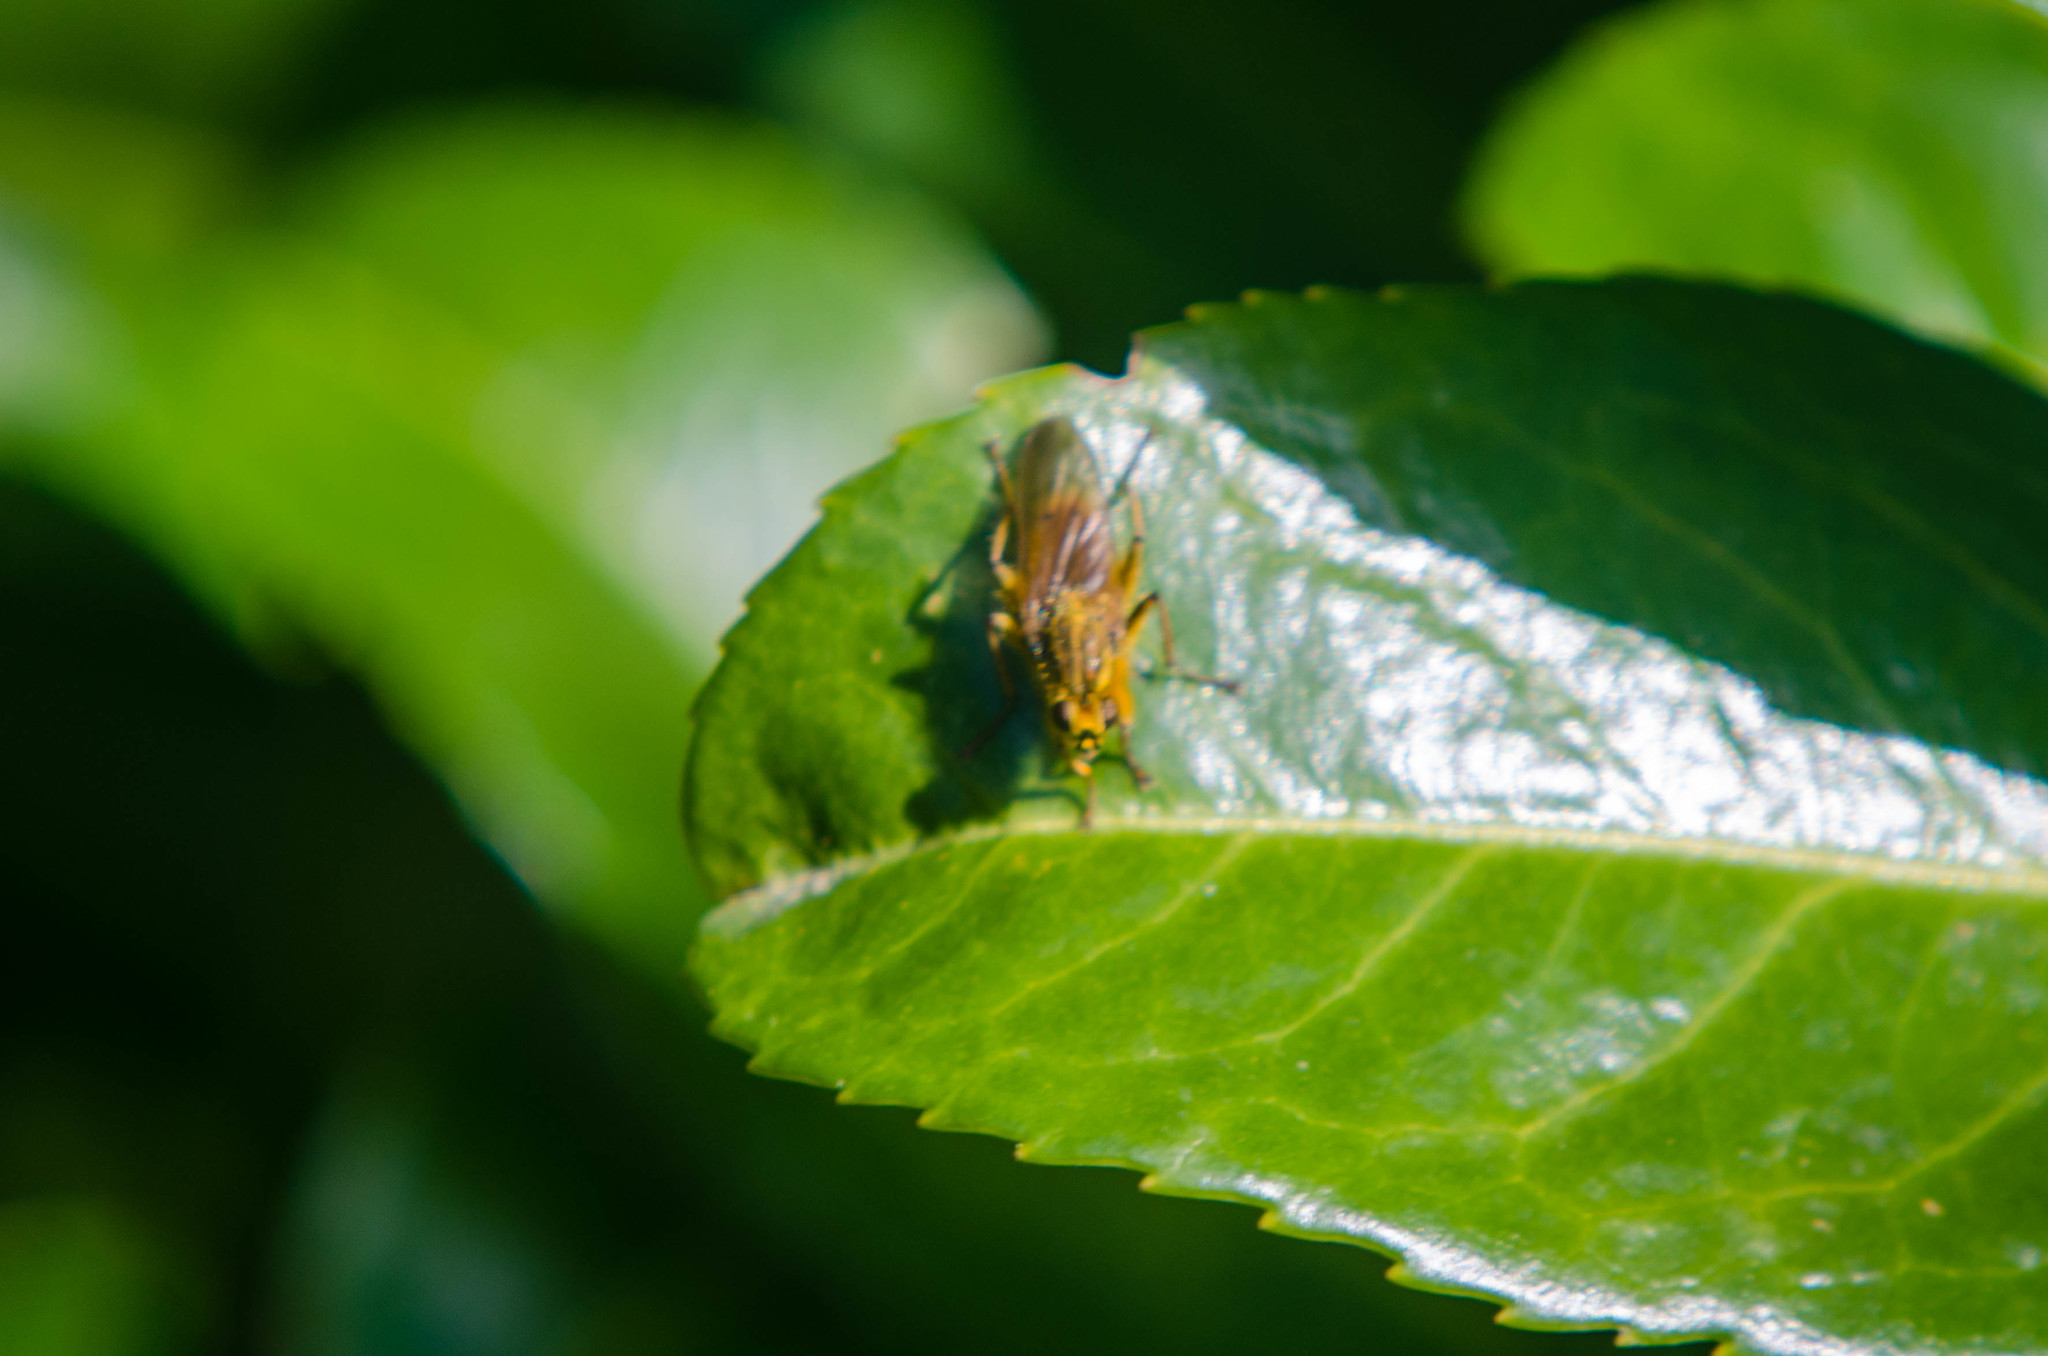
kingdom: Animalia
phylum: Arthropoda
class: Insecta
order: Diptera
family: Scathophagidae
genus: Scathophaga
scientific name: Scathophaga stercoraria
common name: Yellow dung fly
